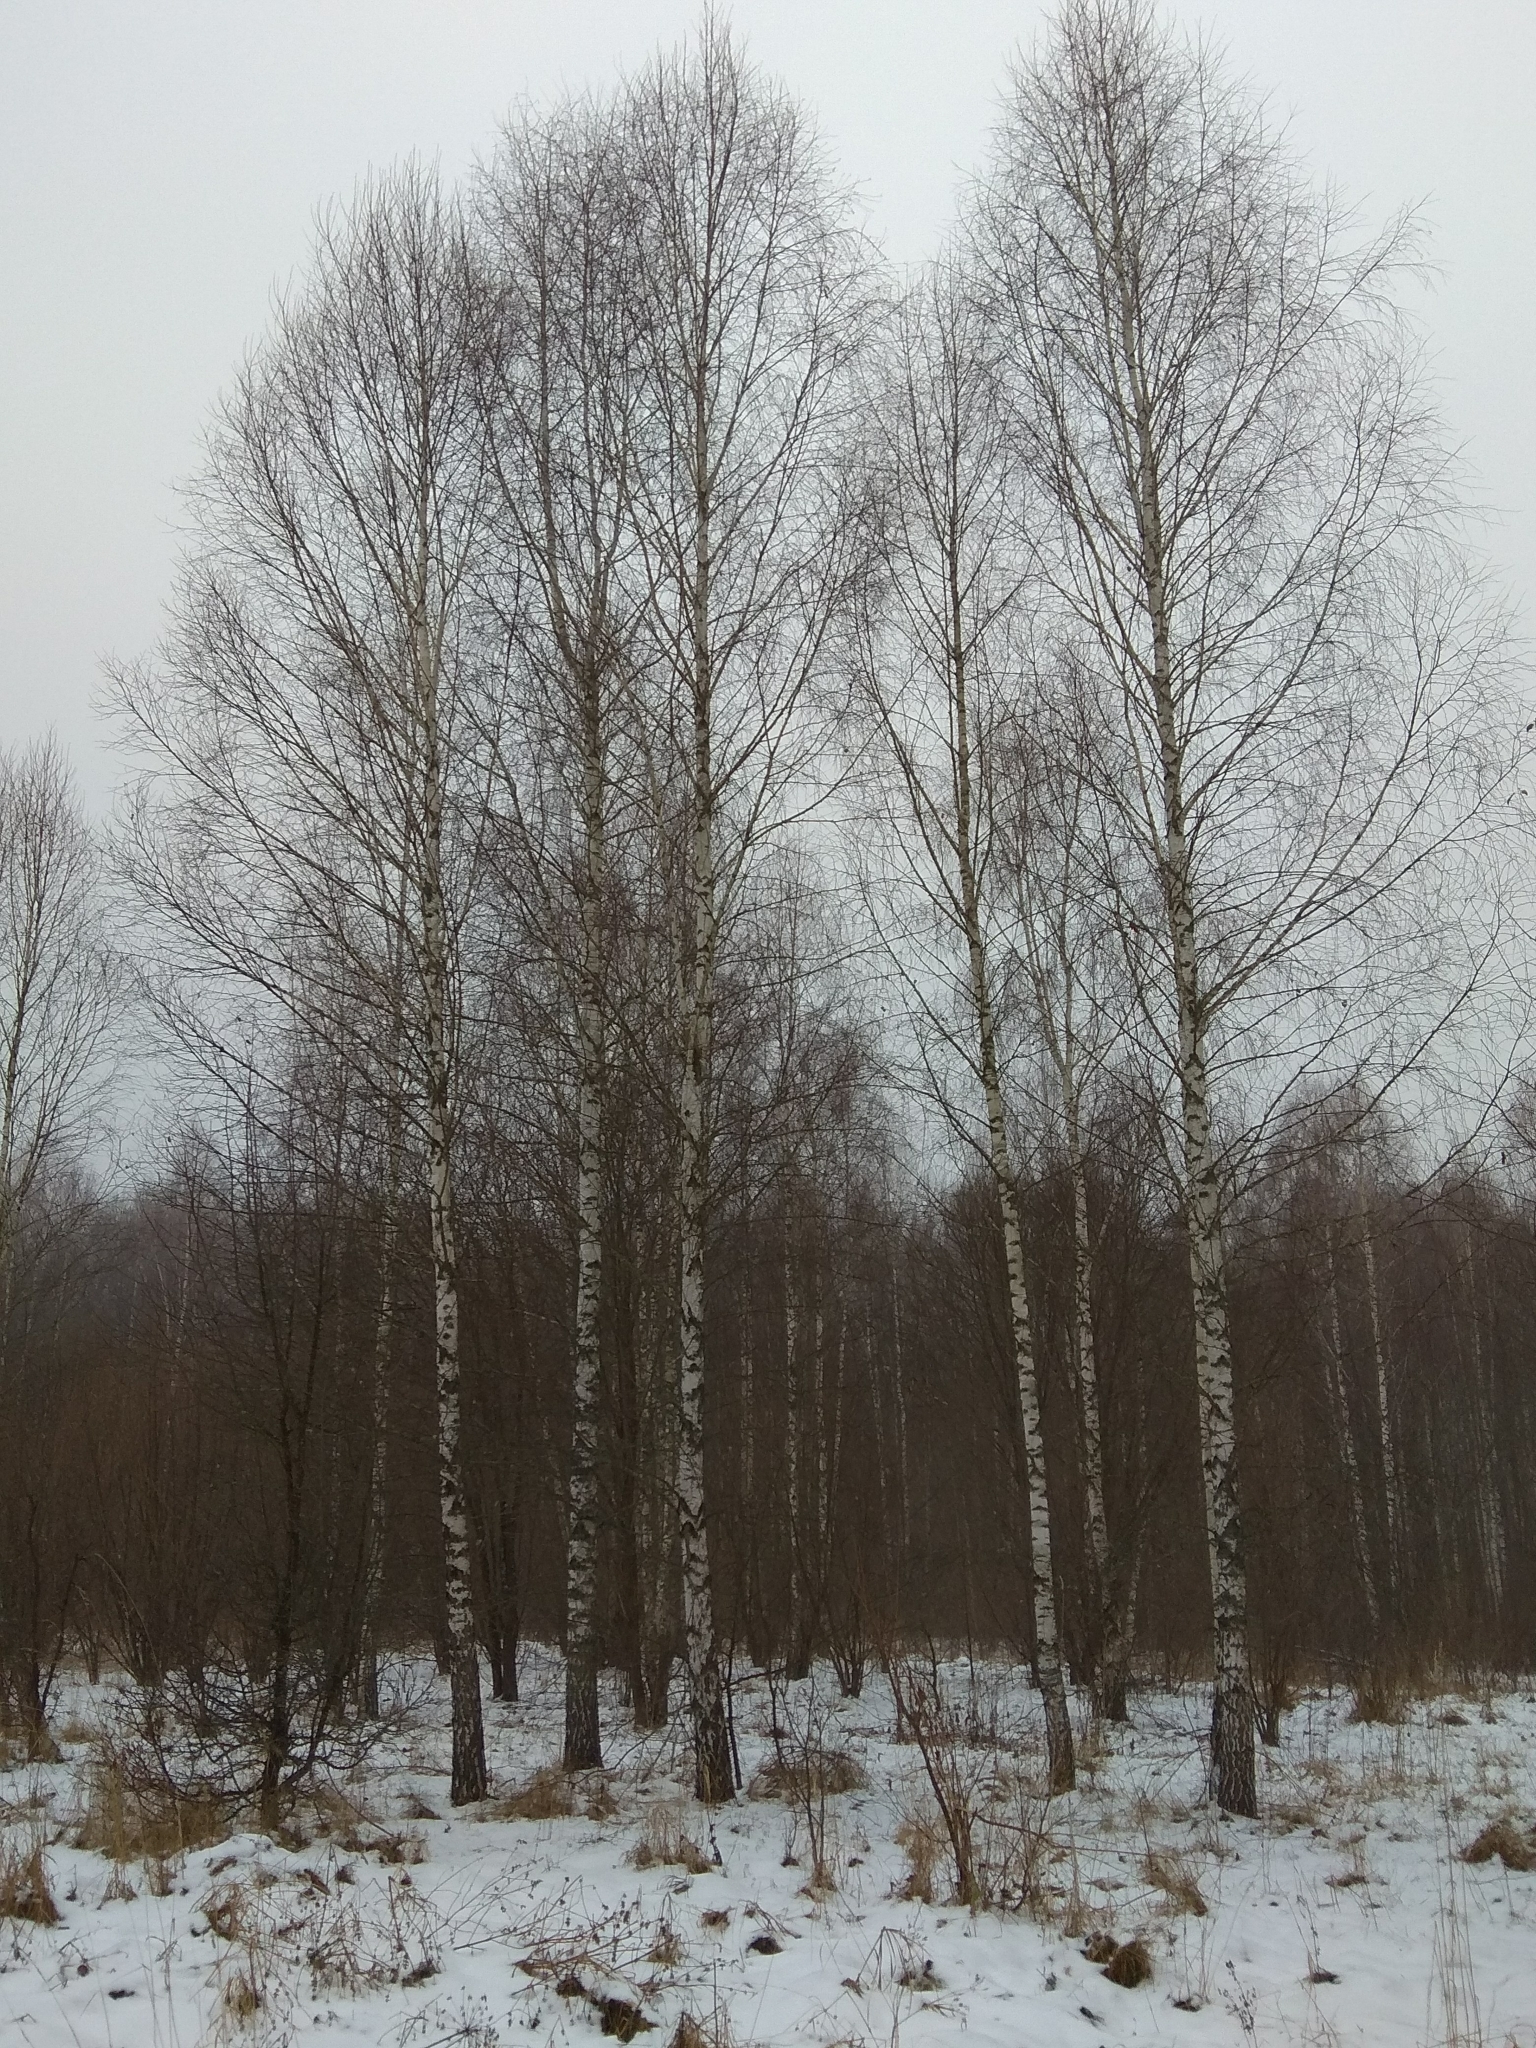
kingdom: Plantae
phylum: Tracheophyta
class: Magnoliopsida
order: Fagales
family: Betulaceae
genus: Betula
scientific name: Betula pendula
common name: Silver birch
